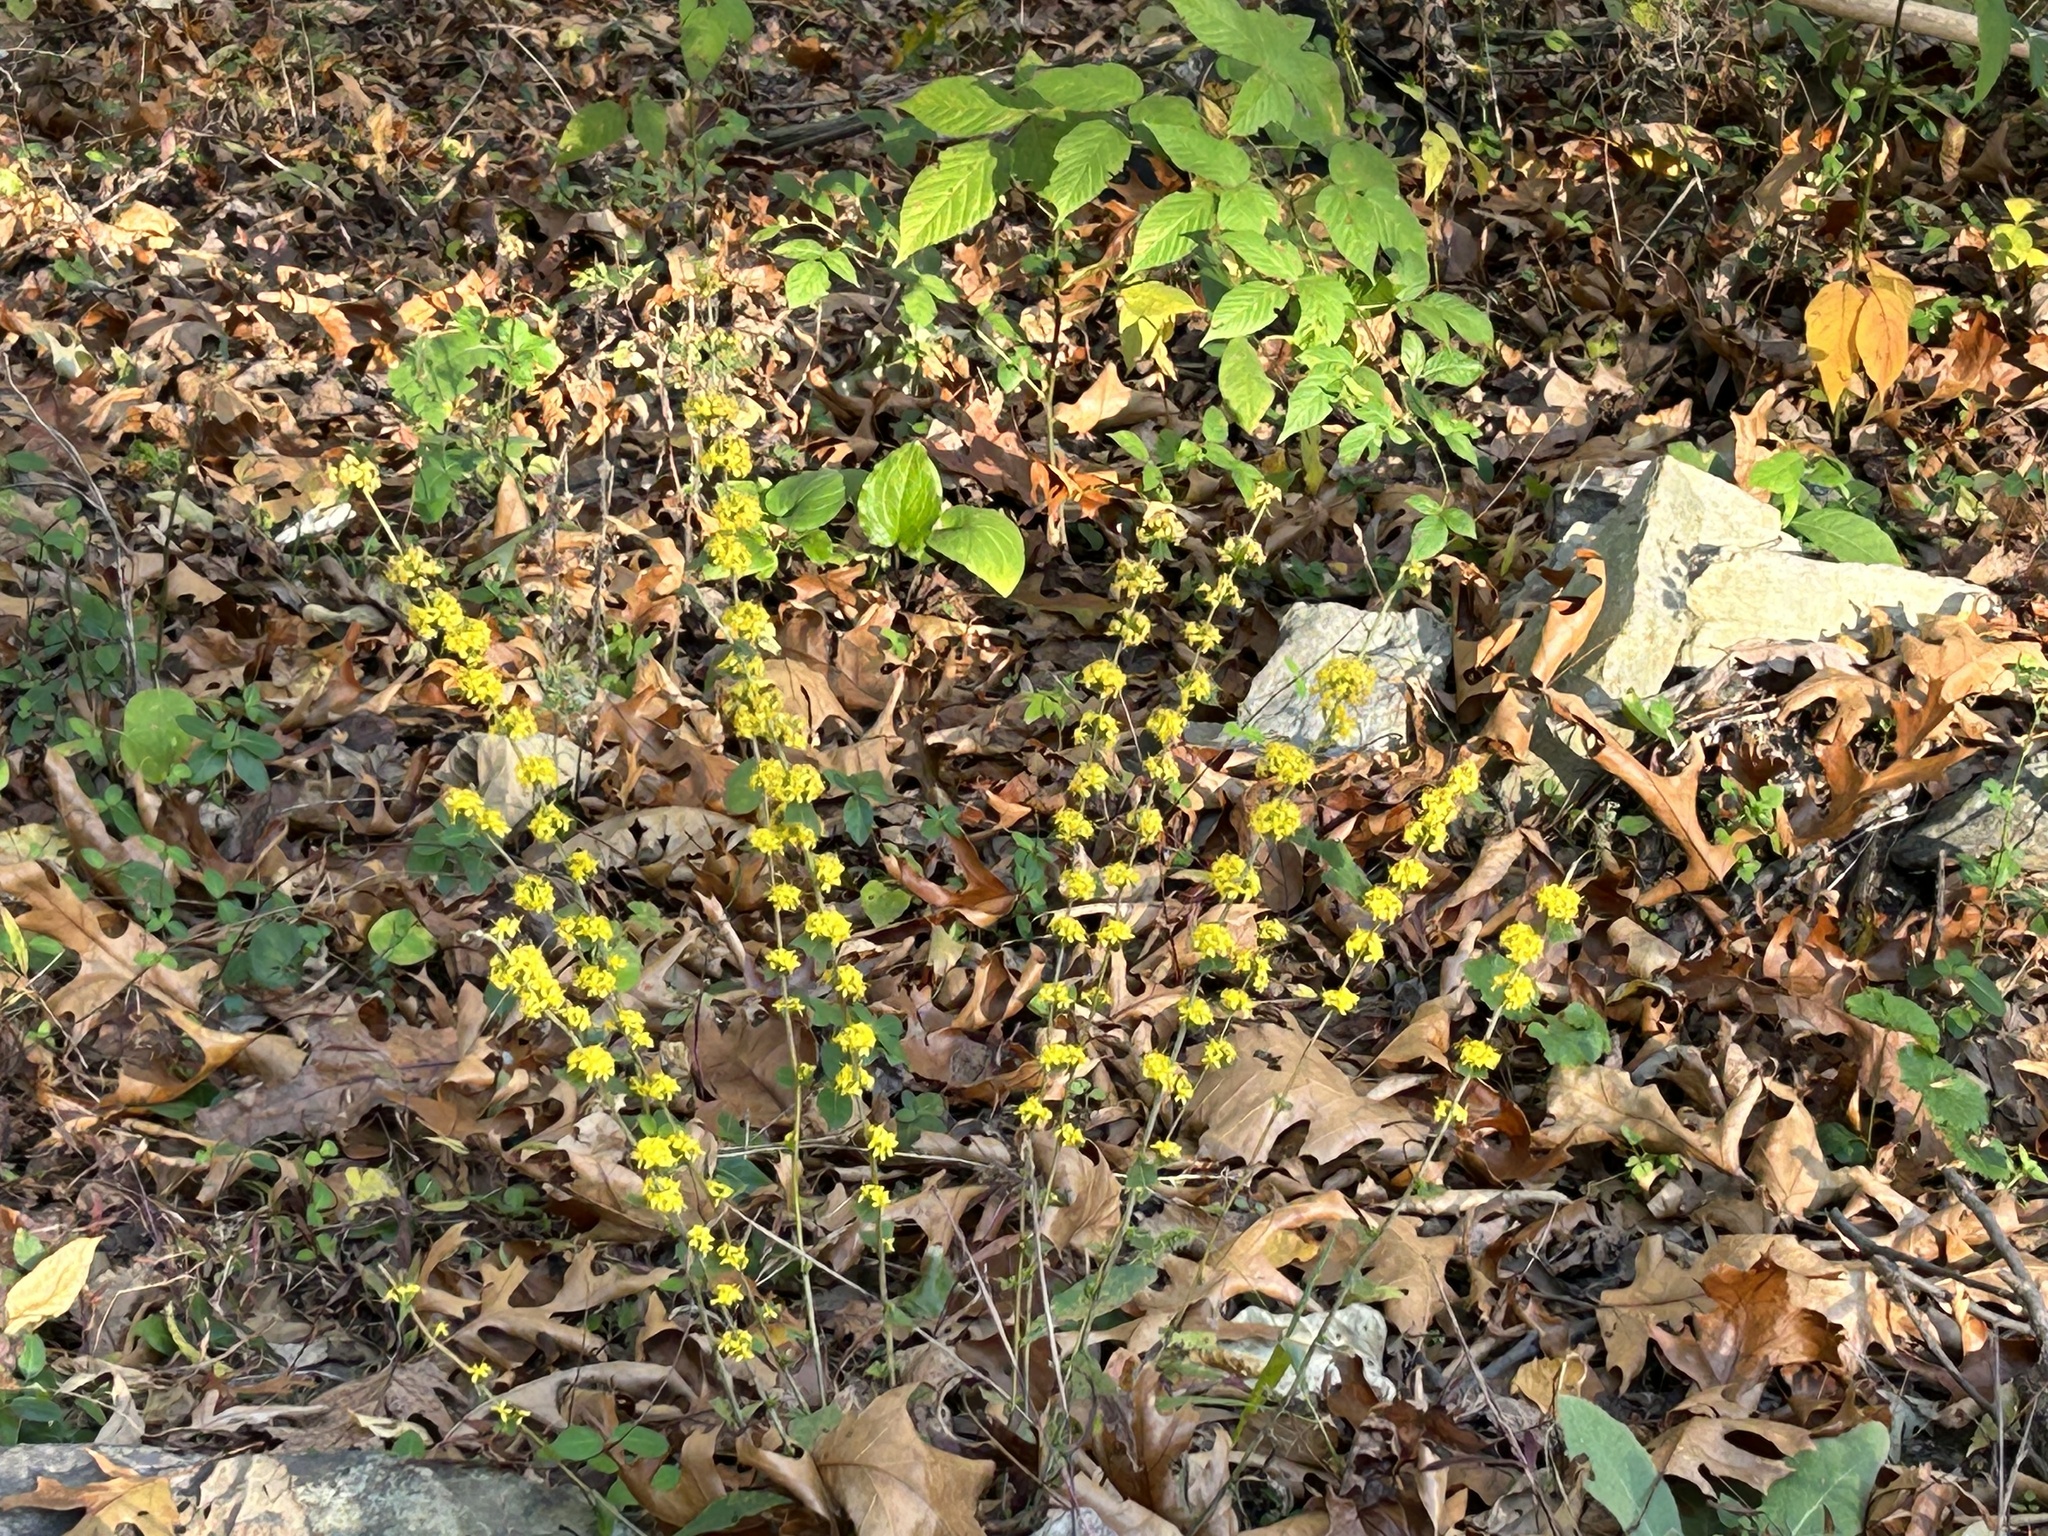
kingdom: Plantae
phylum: Tracheophyta
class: Magnoliopsida
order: Asterales
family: Asteraceae
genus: Solidago
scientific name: Solidago caesia
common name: Woodland goldenrod
